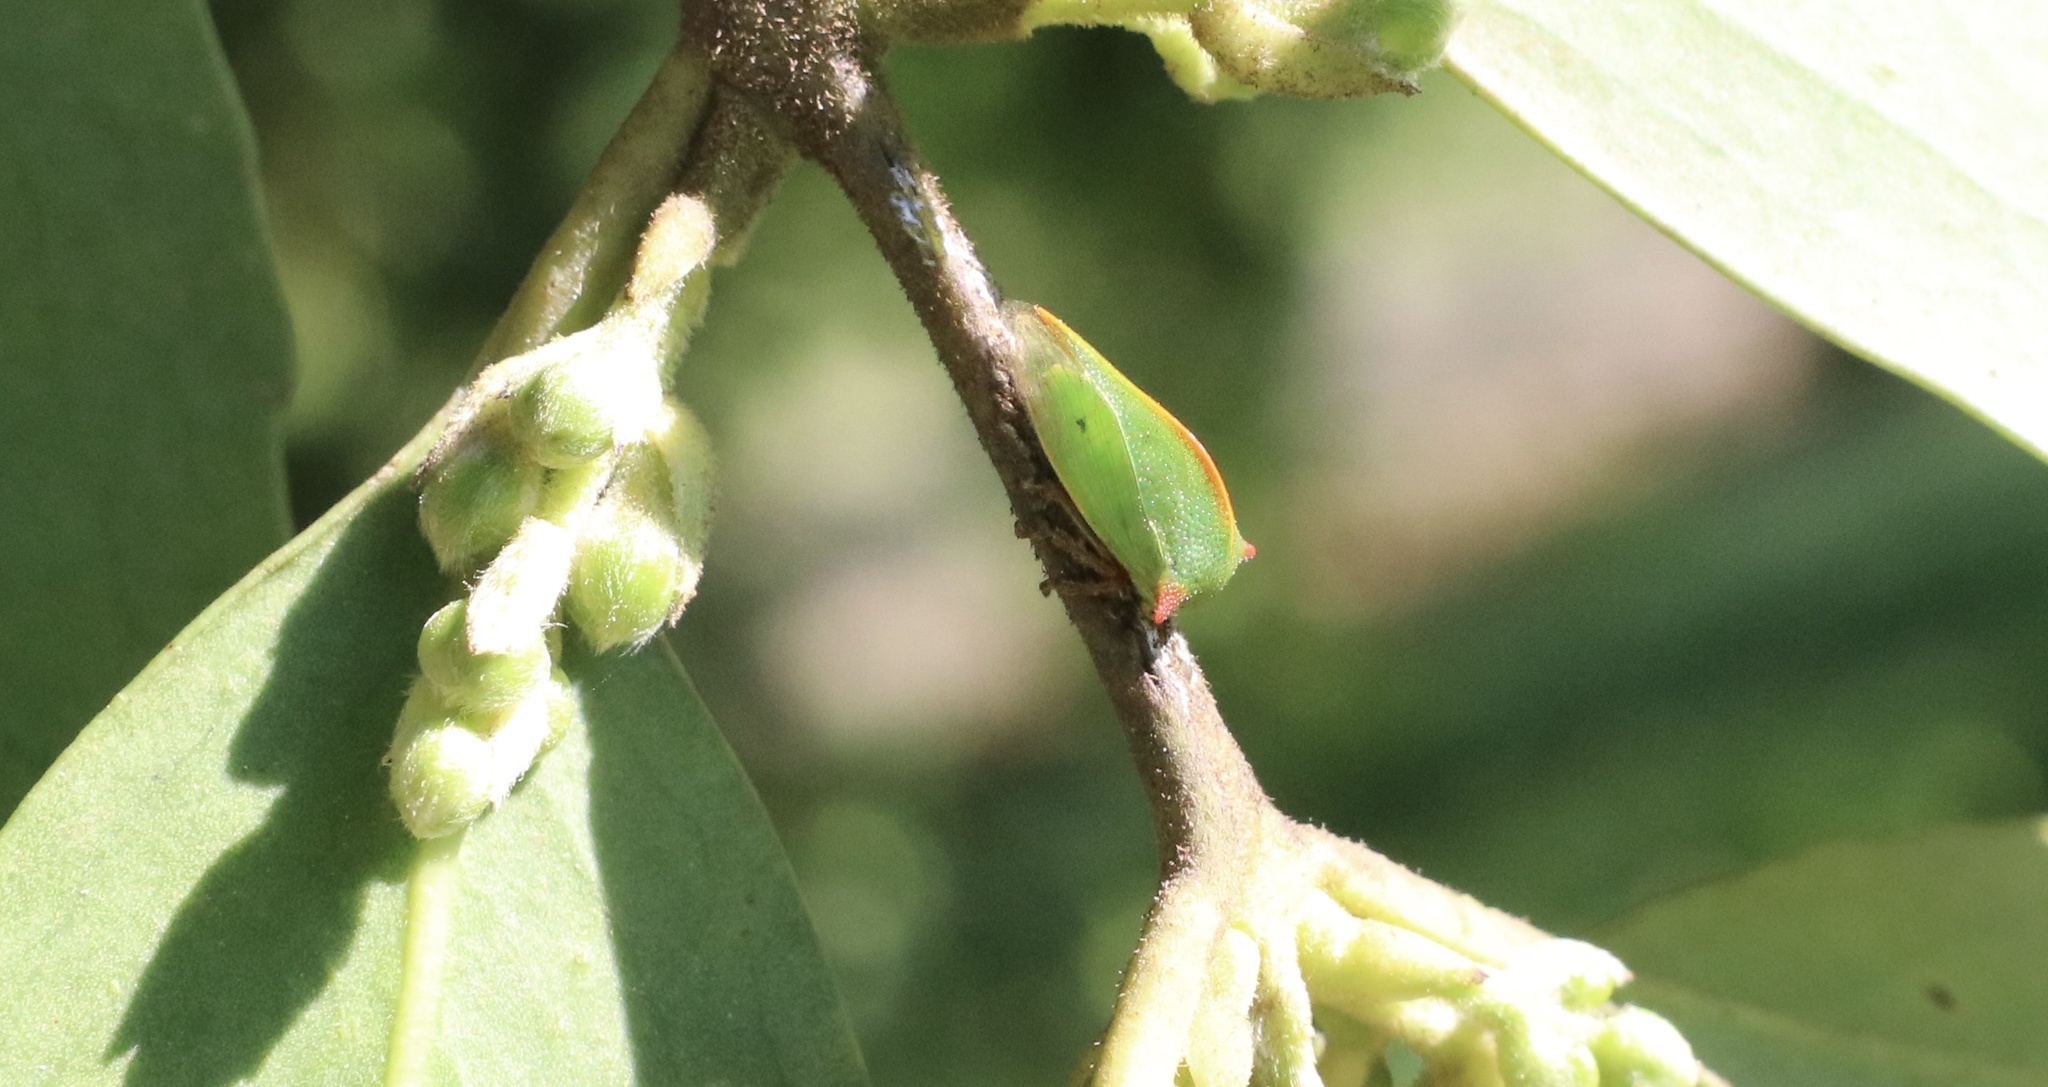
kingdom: Animalia
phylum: Arthropoda
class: Insecta
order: Hemiptera
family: Membracidae
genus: Alchisme
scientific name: Alchisme rubrocostata
